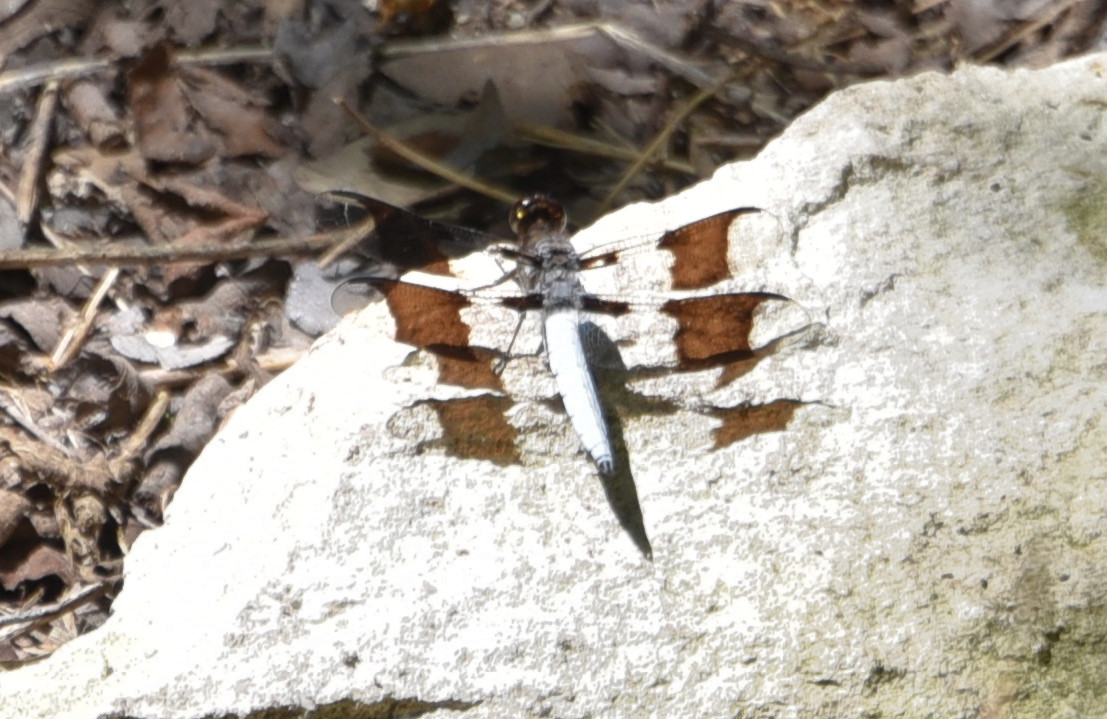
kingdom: Animalia
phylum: Arthropoda
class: Insecta
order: Odonata
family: Libellulidae
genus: Plathemis
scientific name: Plathemis lydia
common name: Common whitetail
